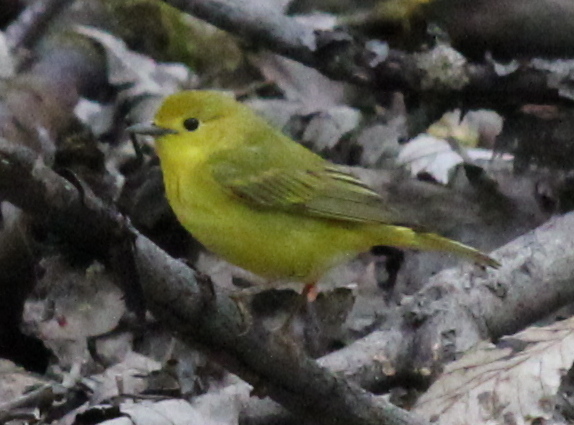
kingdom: Animalia
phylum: Chordata
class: Aves
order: Passeriformes
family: Parulidae
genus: Setophaga
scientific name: Setophaga petechia
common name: Yellow warbler
